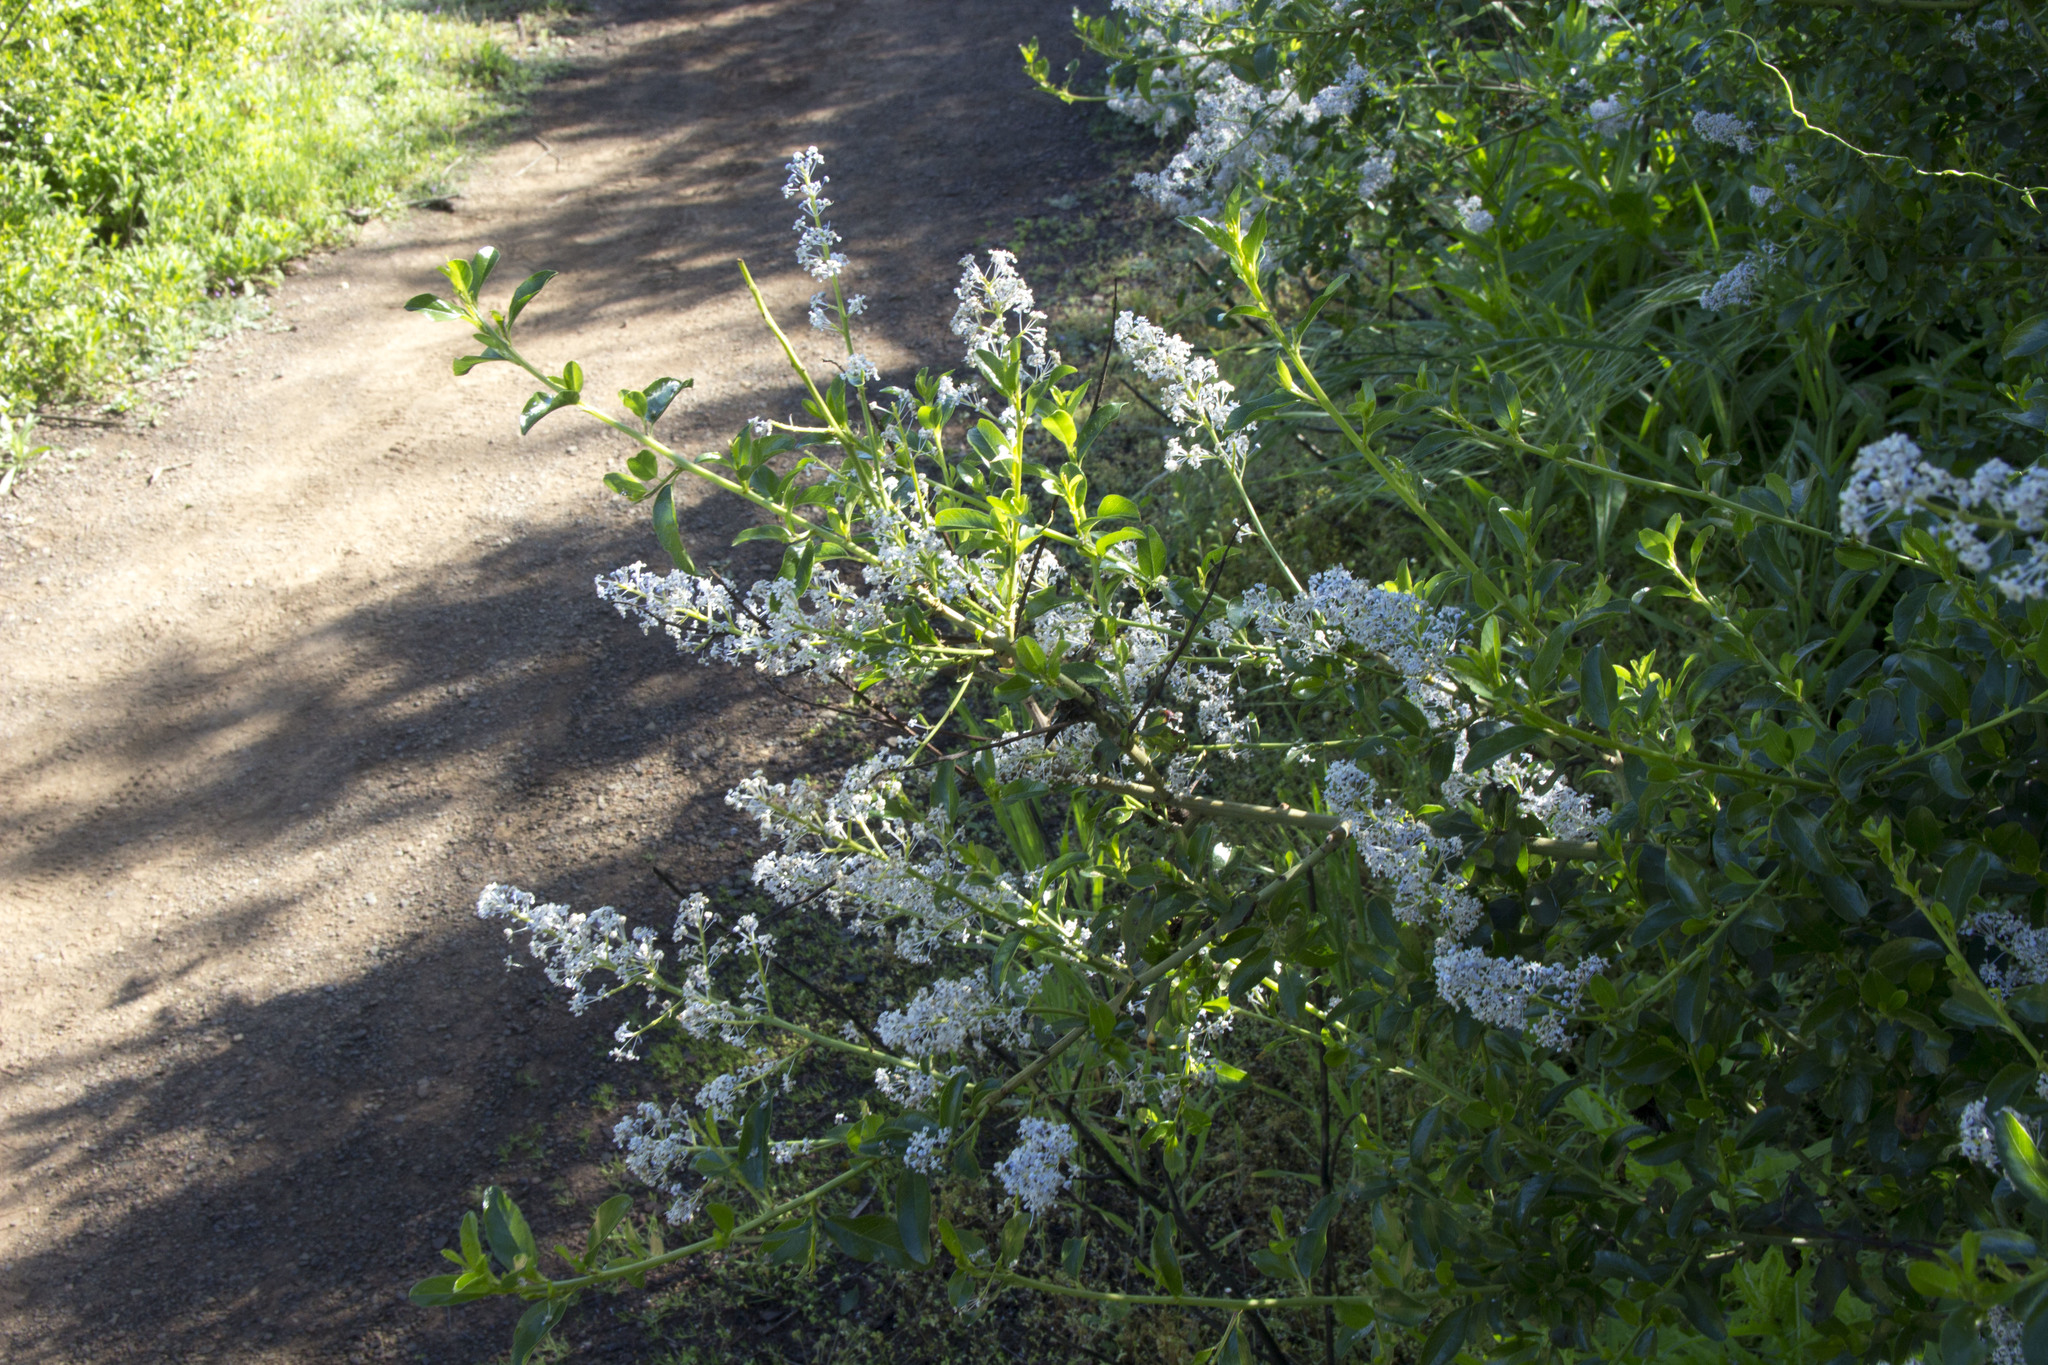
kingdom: Plantae
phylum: Tracheophyta
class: Magnoliopsida
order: Rosales
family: Rhamnaceae
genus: Ceanothus
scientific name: Ceanothus spinosus
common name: Greenbark whitethorn
